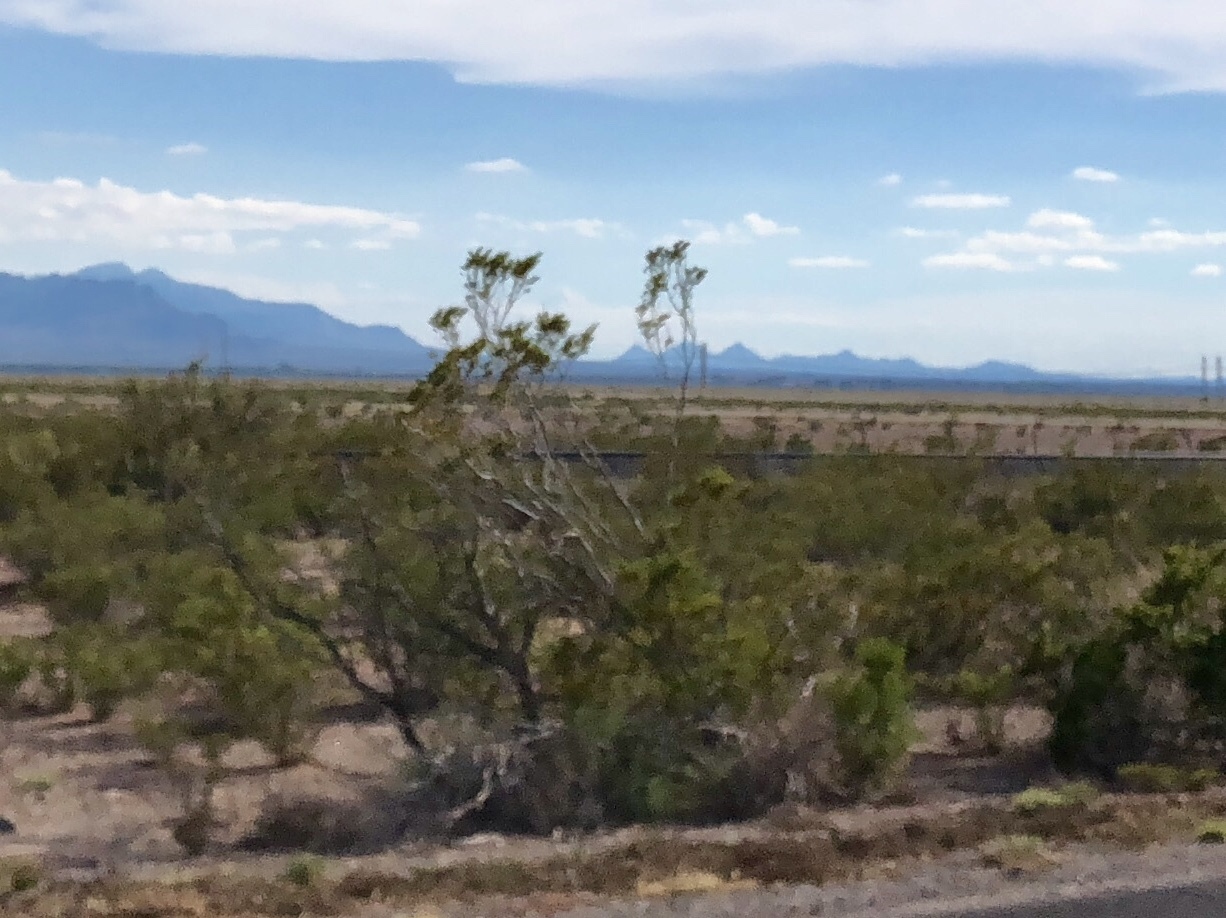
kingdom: Plantae
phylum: Tracheophyta
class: Magnoliopsida
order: Zygophyllales
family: Zygophyllaceae
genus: Larrea
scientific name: Larrea tridentata
